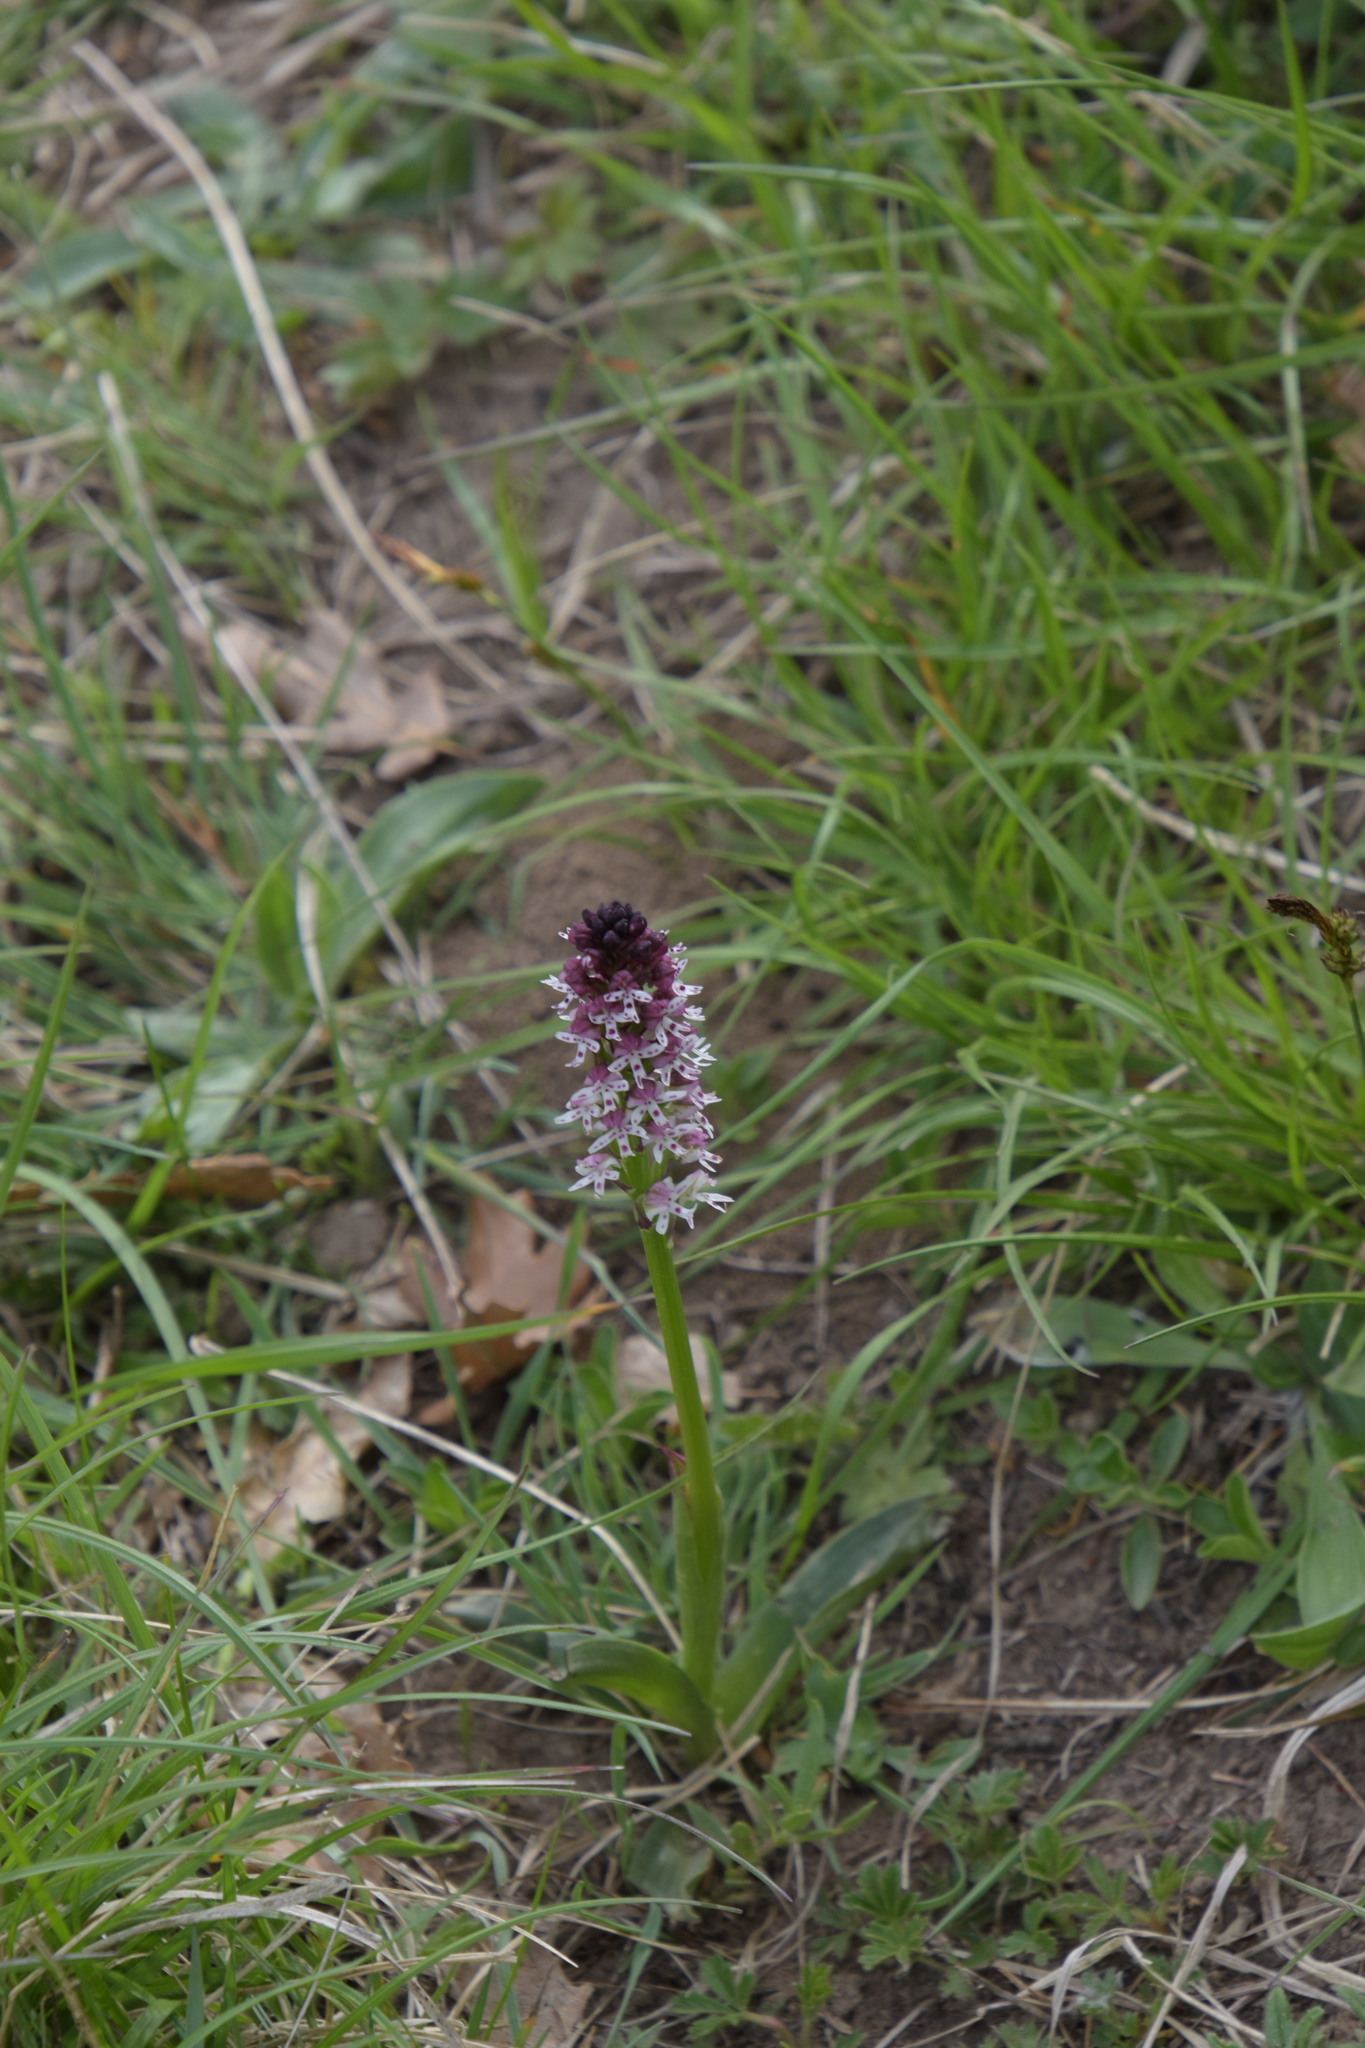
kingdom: Plantae
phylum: Tracheophyta
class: Liliopsida
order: Asparagales
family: Orchidaceae
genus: Neotinea
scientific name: Neotinea ustulata
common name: Burnt orchid
